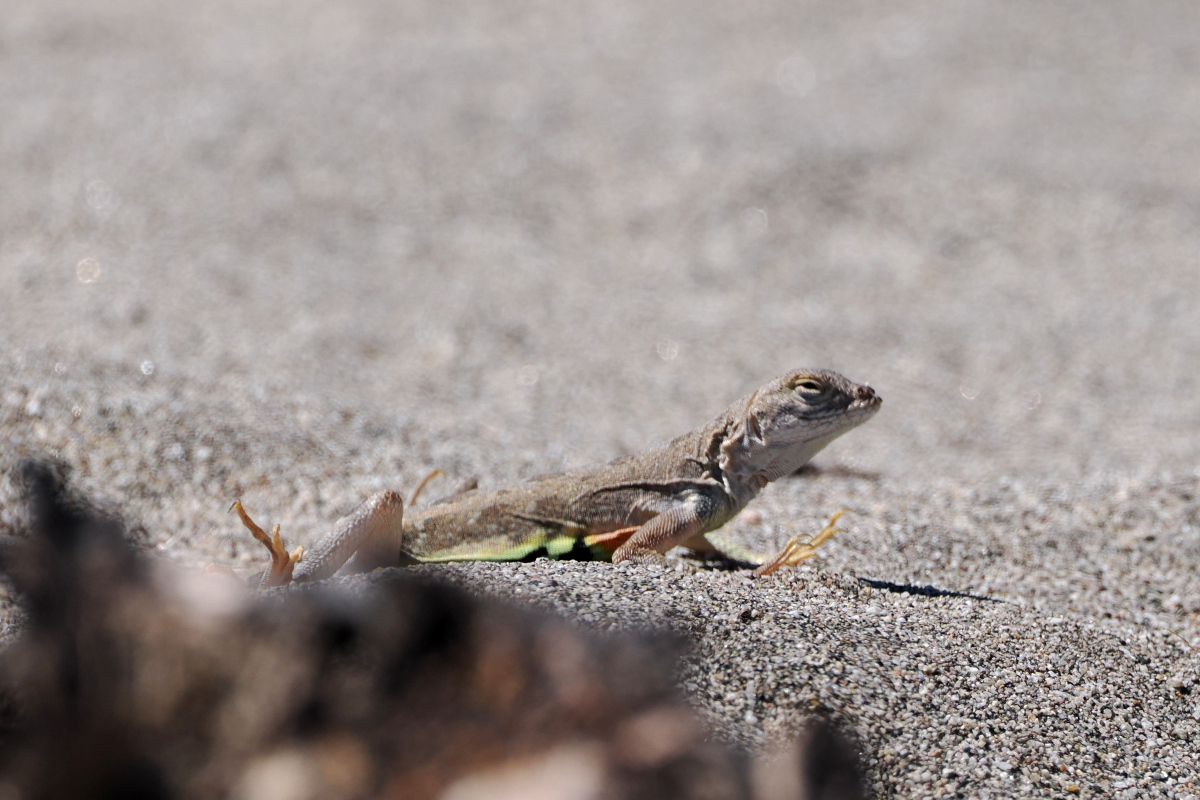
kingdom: Animalia
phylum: Chordata
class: Squamata
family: Phrynosomatidae
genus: Callisaurus
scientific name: Callisaurus draconoides
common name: Zebra-tailed lizard
